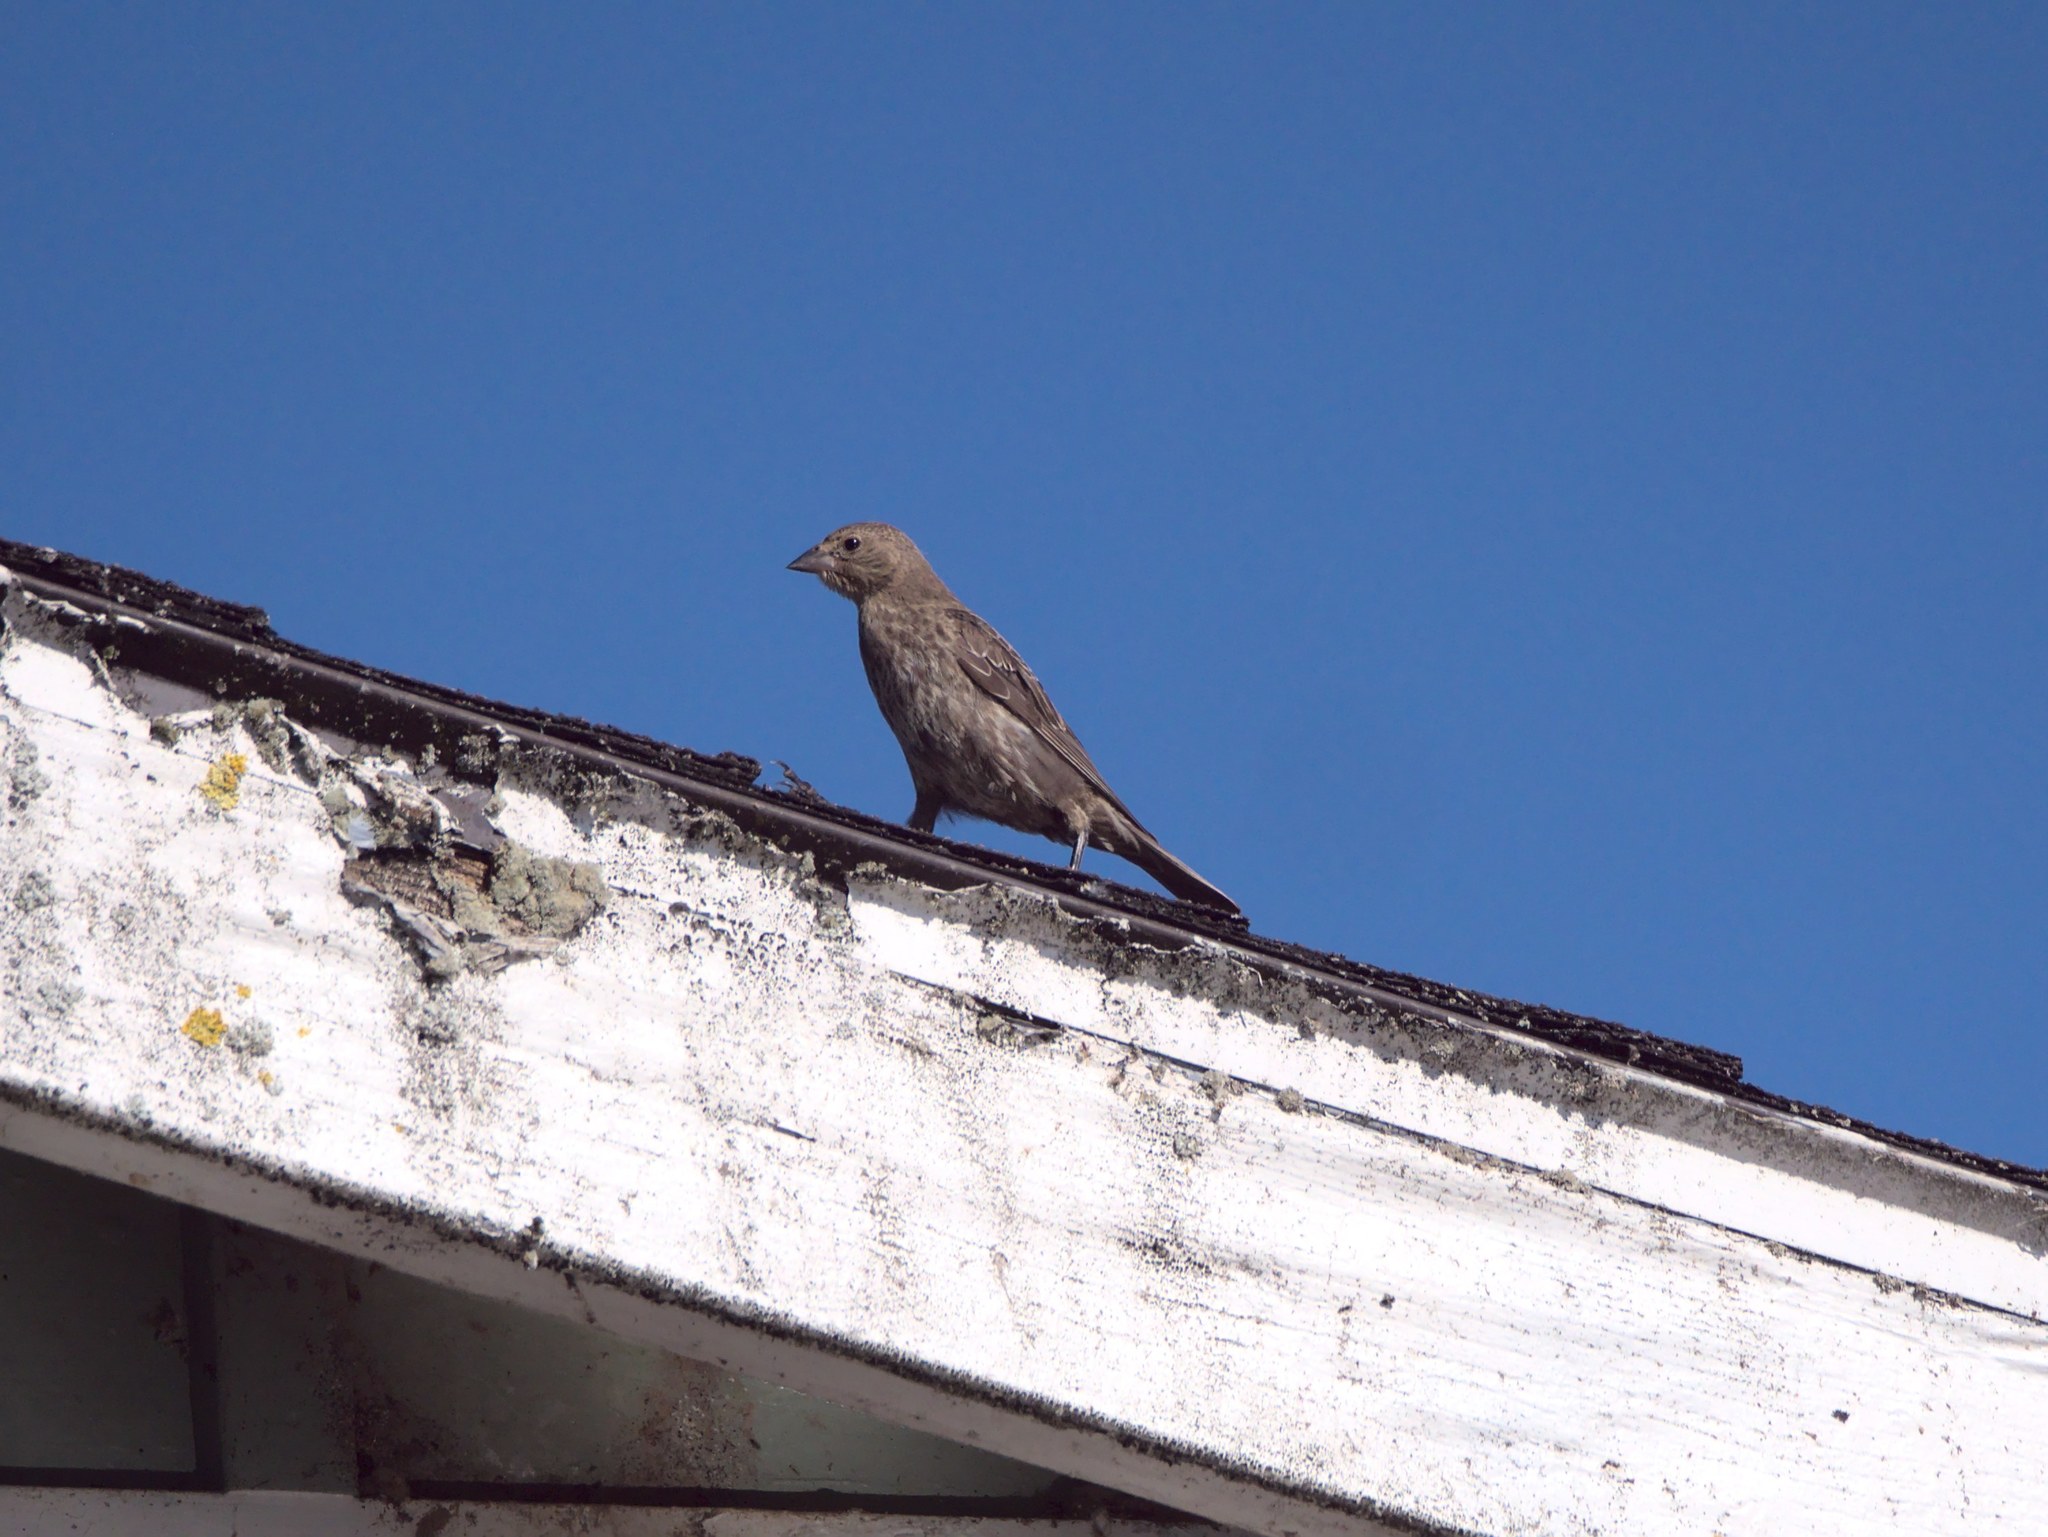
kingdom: Animalia
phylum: Chordata
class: Aves
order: Passeriformes
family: Icteridae
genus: Molothrus
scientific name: Molothrus ater
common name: Brown-headed cowbird
